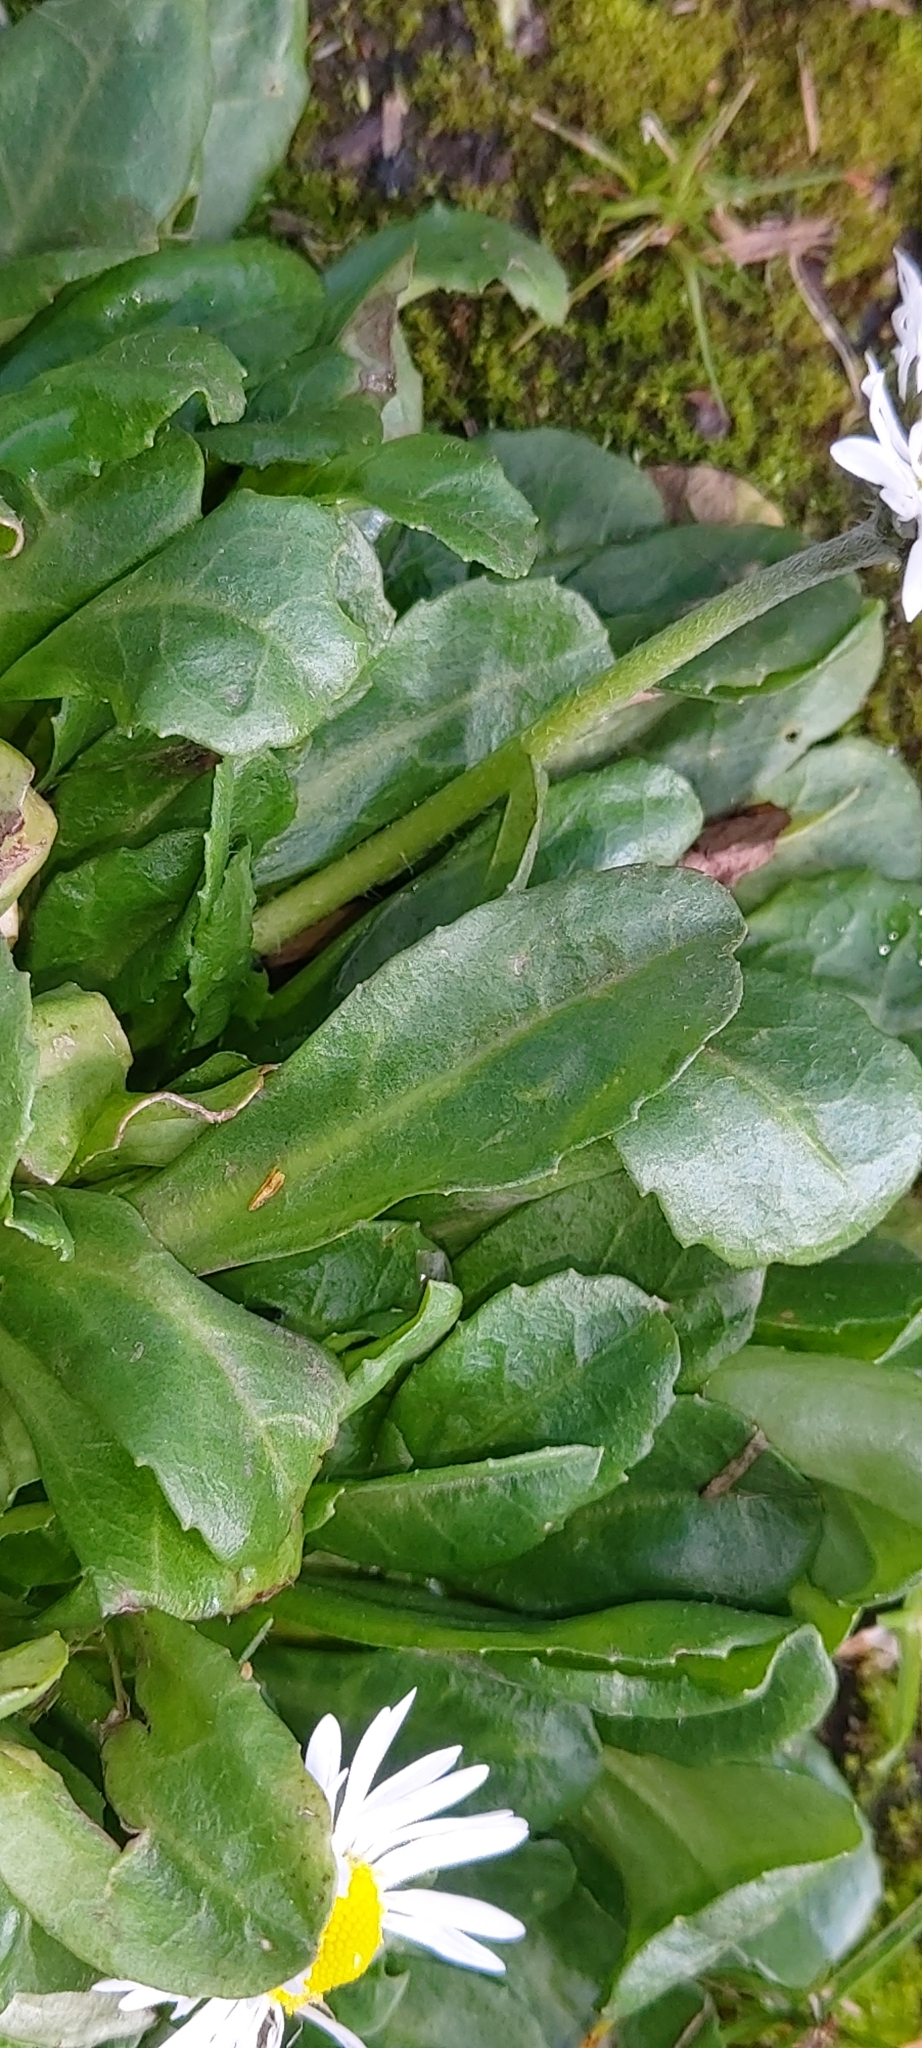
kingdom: Plantae
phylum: Tracheophyta
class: Magnoliopsida
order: Asterales
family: Asteraceae
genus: Bellis
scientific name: Bellis perennis
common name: Lawndaisy
